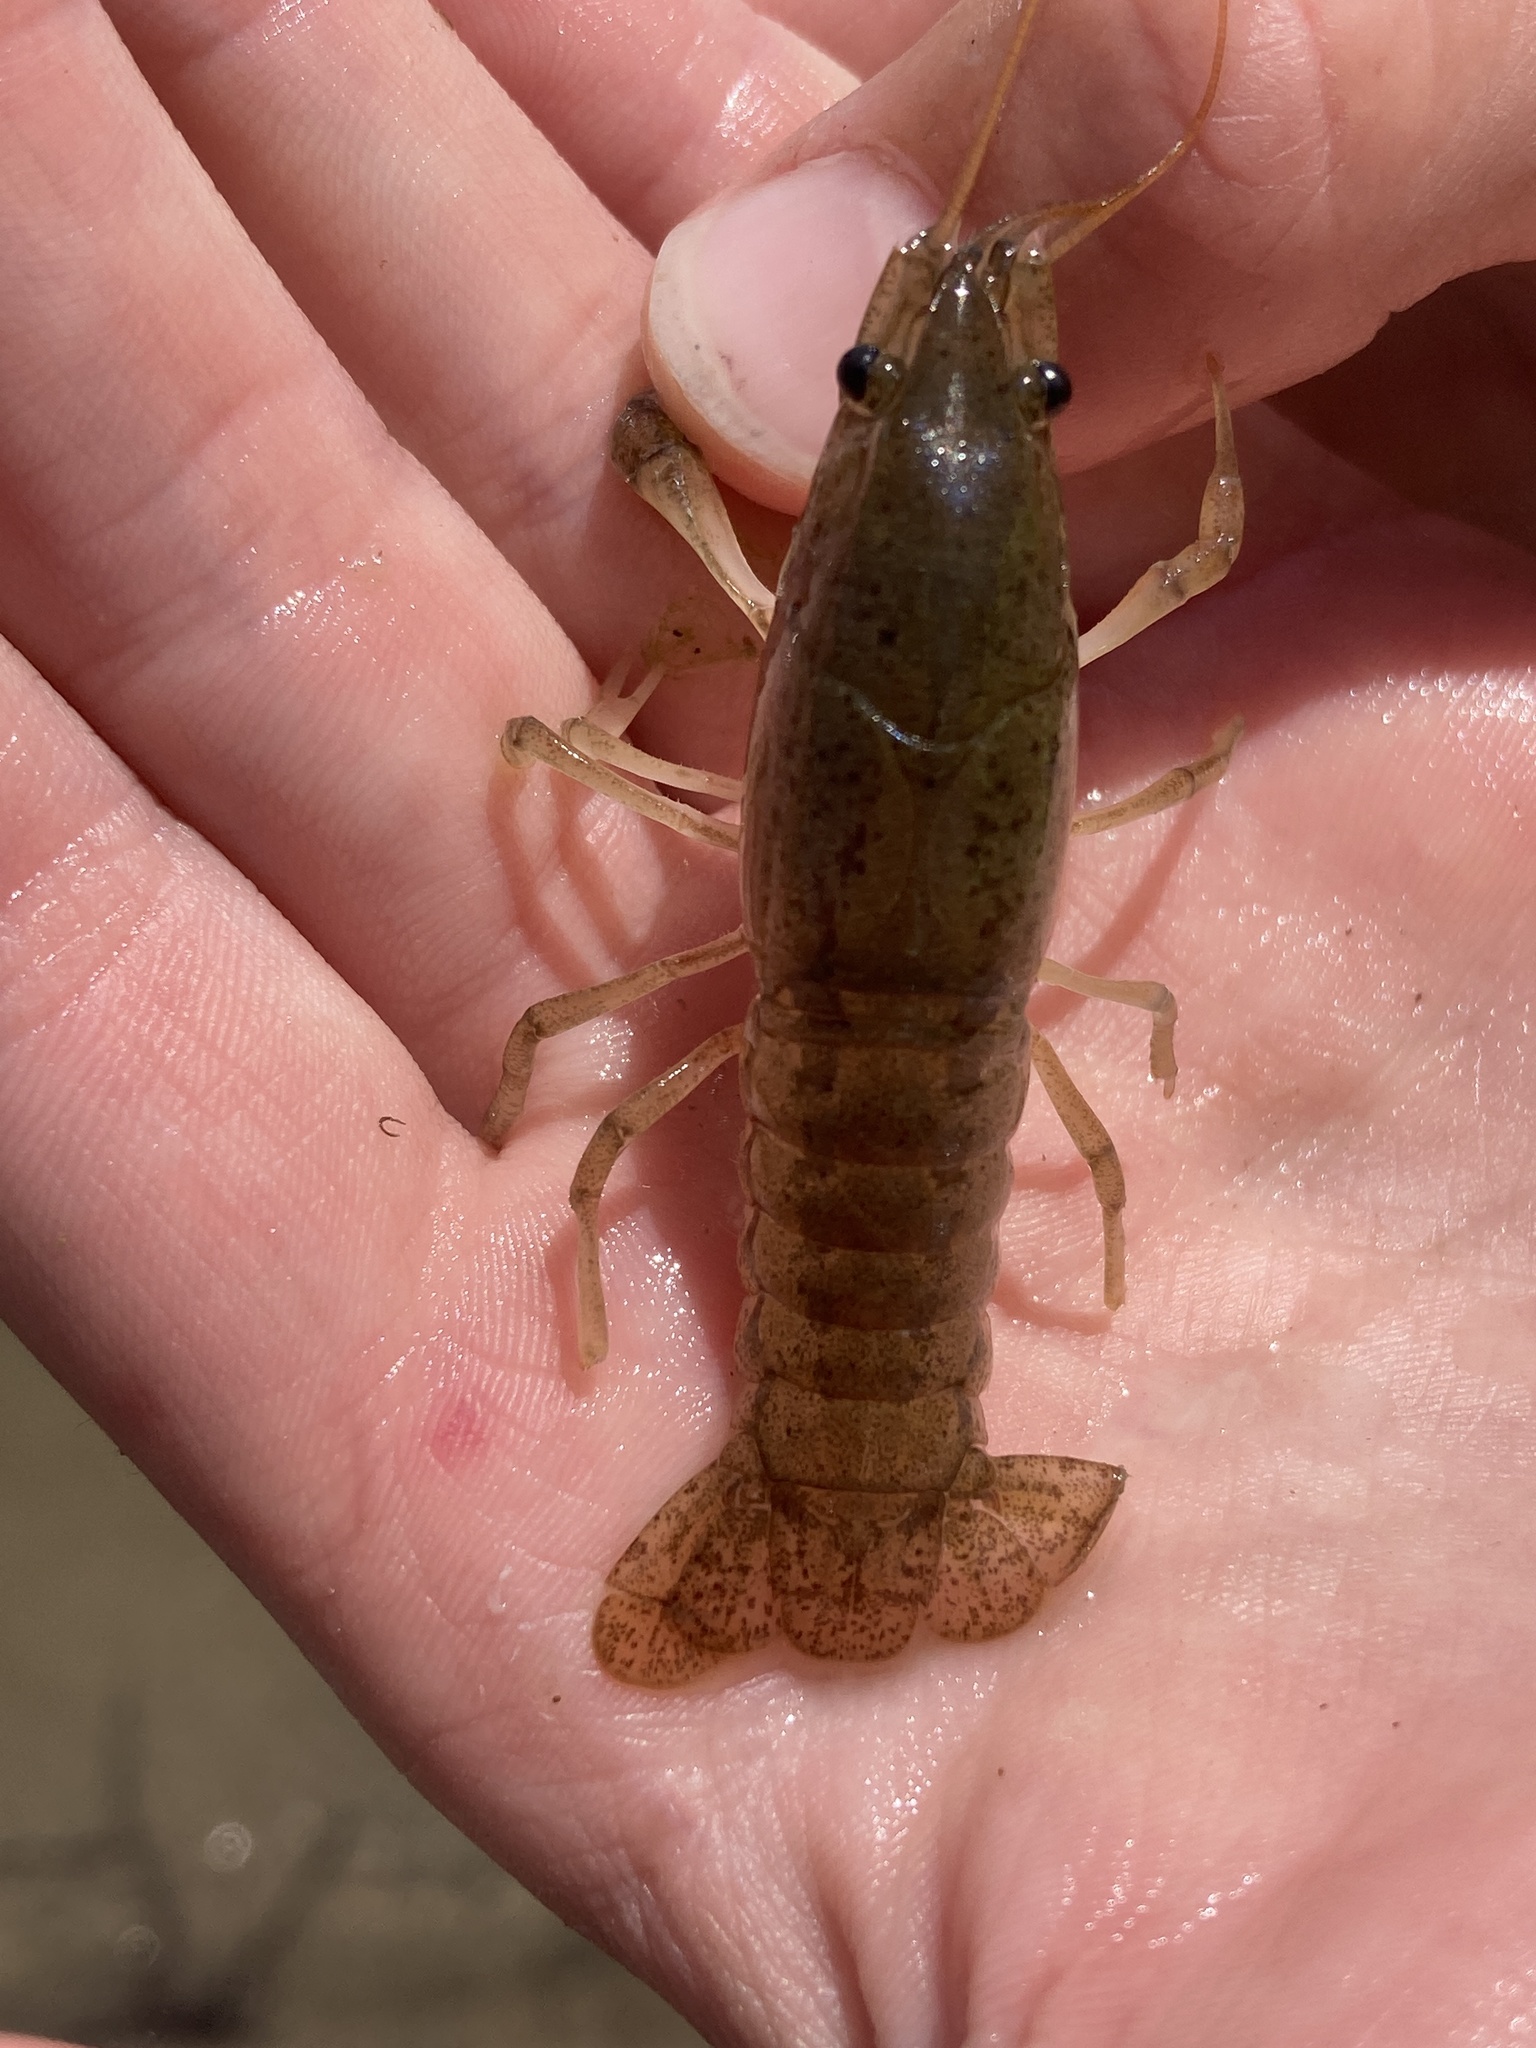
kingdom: Animalia
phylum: Arthropoda
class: Malacostraca
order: Decapoda
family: Cambaridae
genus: Procambarus
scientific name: Procambarus simulans
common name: Southern plains crayfish
